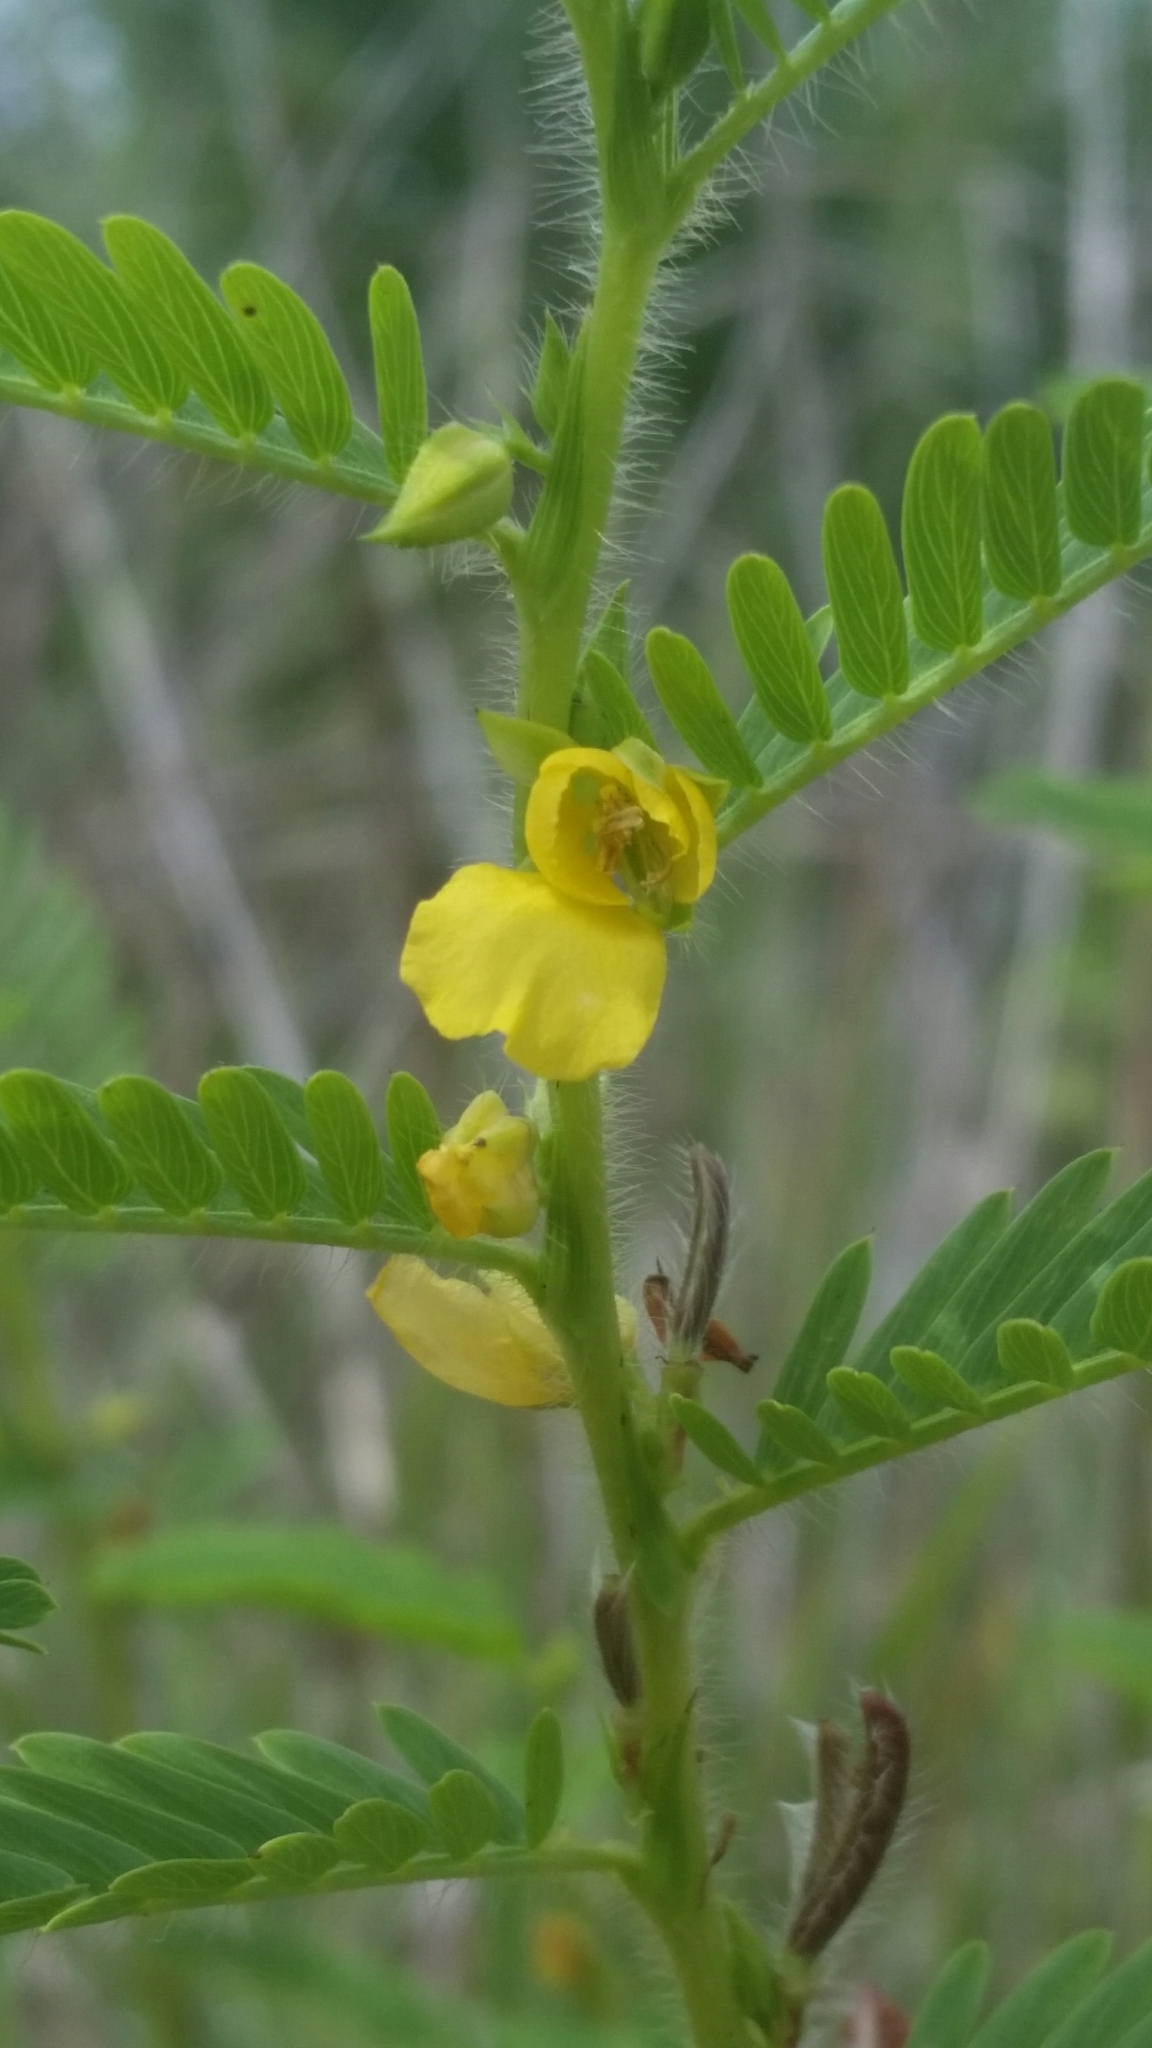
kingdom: Plantae
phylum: Tracheophyta
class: Magnoliopsida
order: Fabales
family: Fabaceae
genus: Chamaecrista
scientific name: Chamaecrista nictitans
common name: Sensitive cassia
